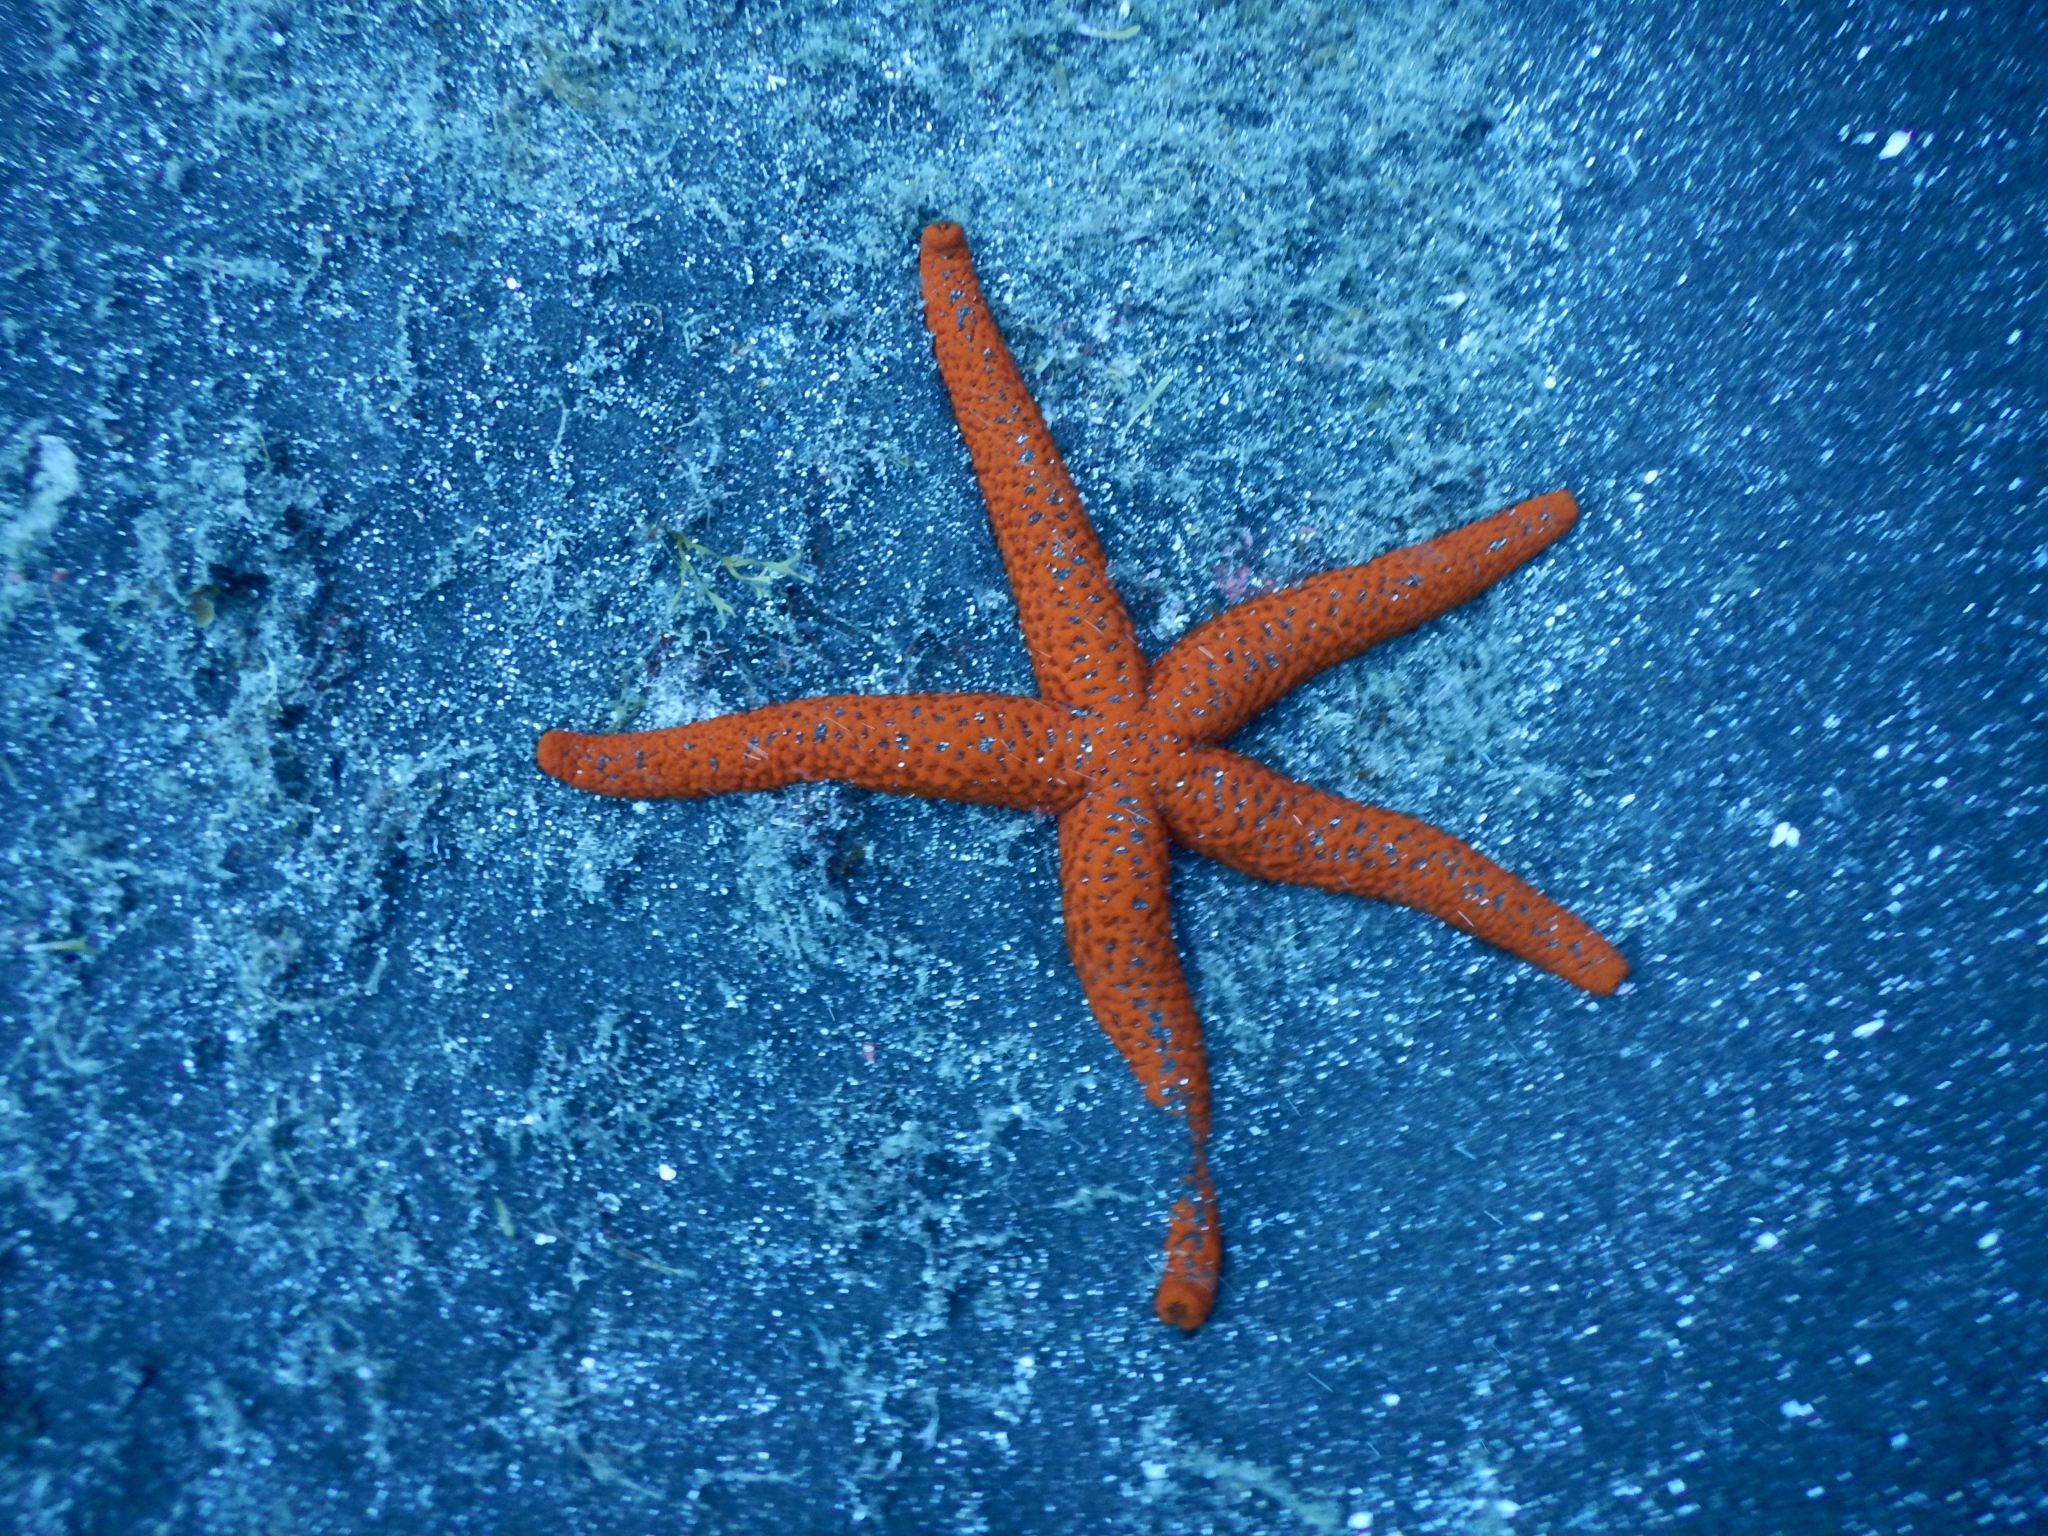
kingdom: Animalia
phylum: Echinodermata
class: Asteroidea
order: Spinulosida
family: Echinasteridae
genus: Echinaster
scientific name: Echinaster sepositus
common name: Red starfish
